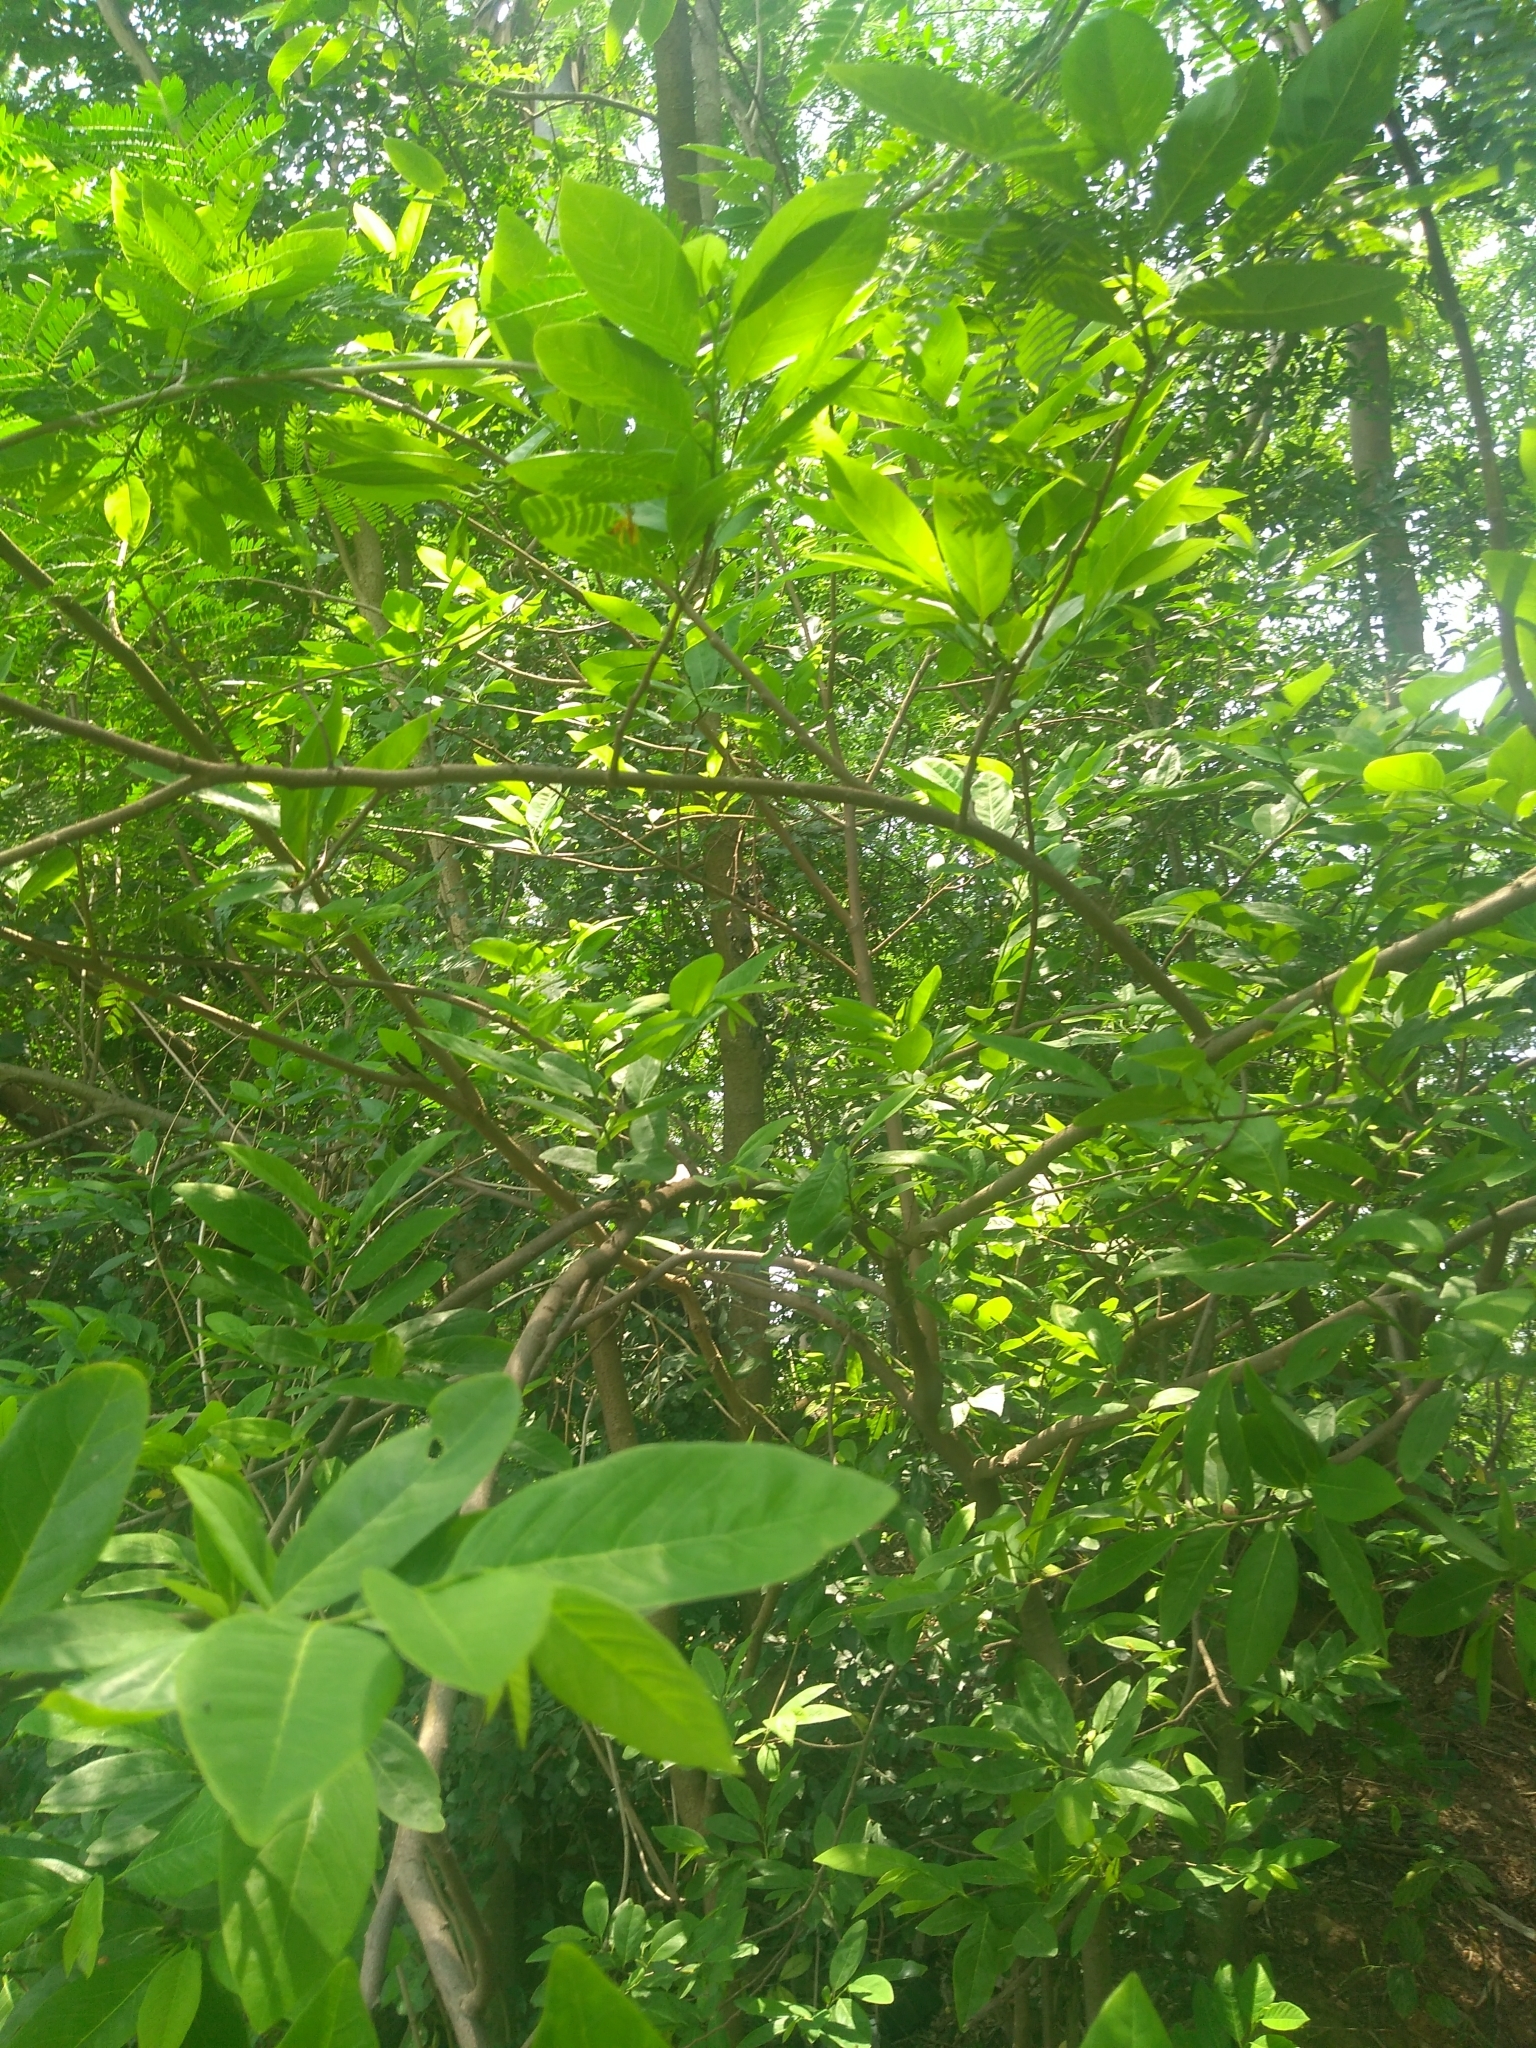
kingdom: Plantae
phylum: Tracheophyta
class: Magnoliopsida
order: Magnoliales
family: Annonaceae
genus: Annona
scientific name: Annona squamosa
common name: Custard-apple
